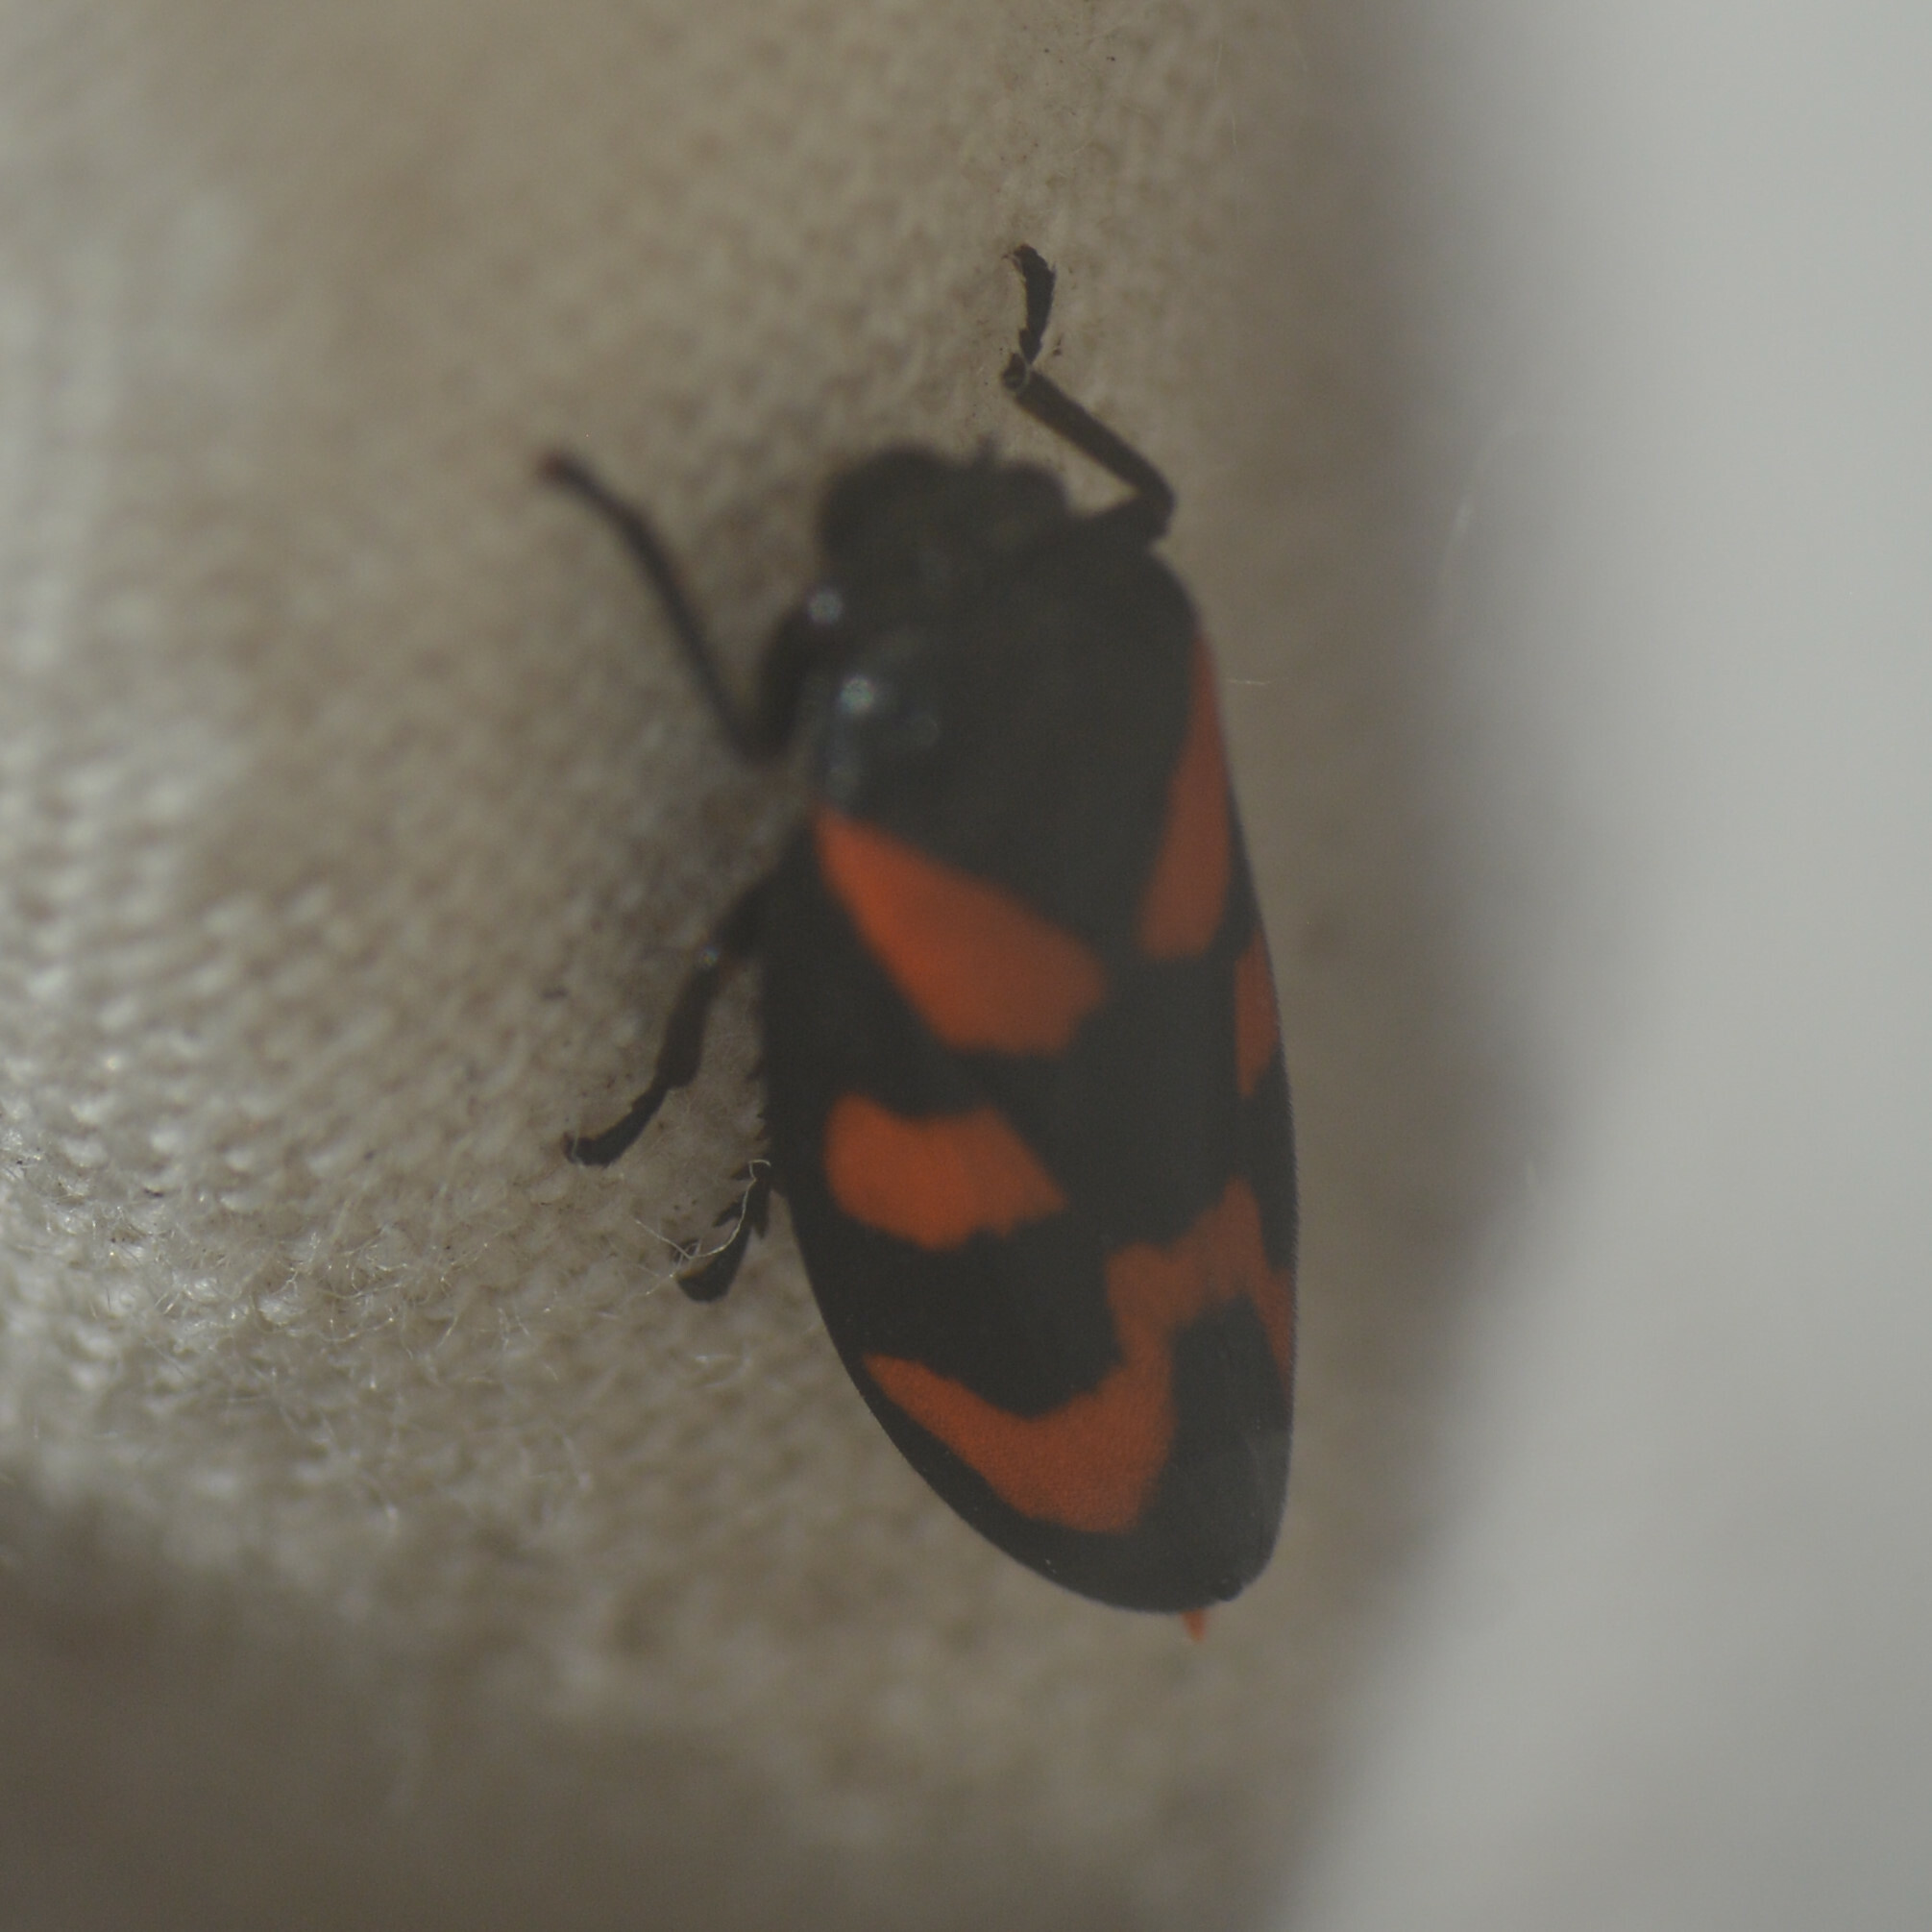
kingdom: Animalia
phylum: Arthropoda
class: Insecta
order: Hemiptera
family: Cercopidae
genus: Cercopis
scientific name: Cercopis vulnerata
